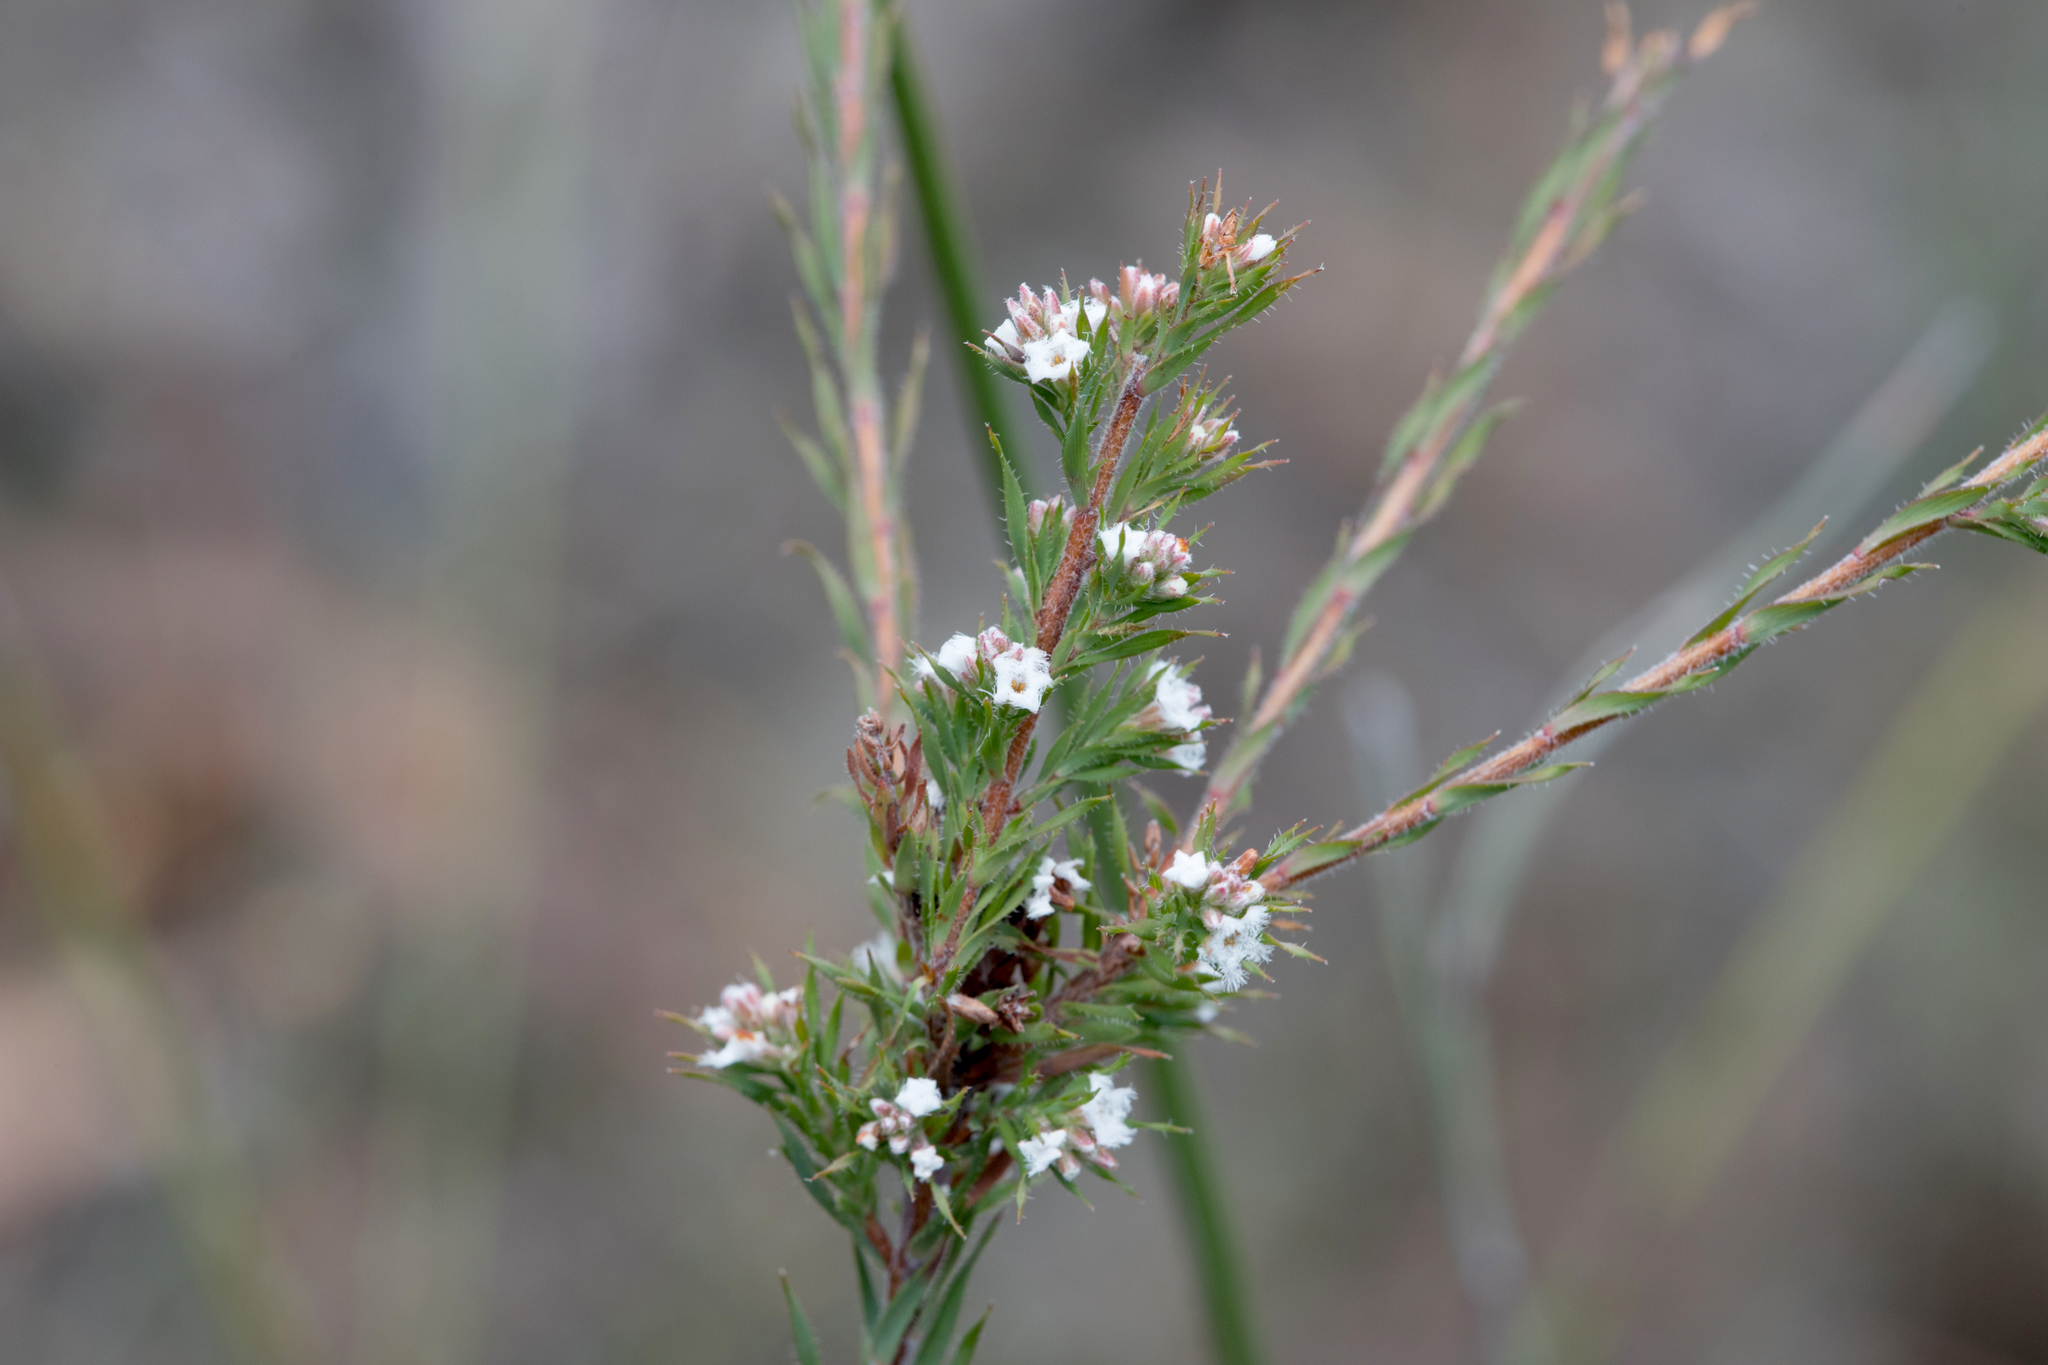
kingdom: Plantae
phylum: Tracheophyta
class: Magnoliopsida
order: Ericales
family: Ericaceae
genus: Leucopogon
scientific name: Leucopogon glacialis
